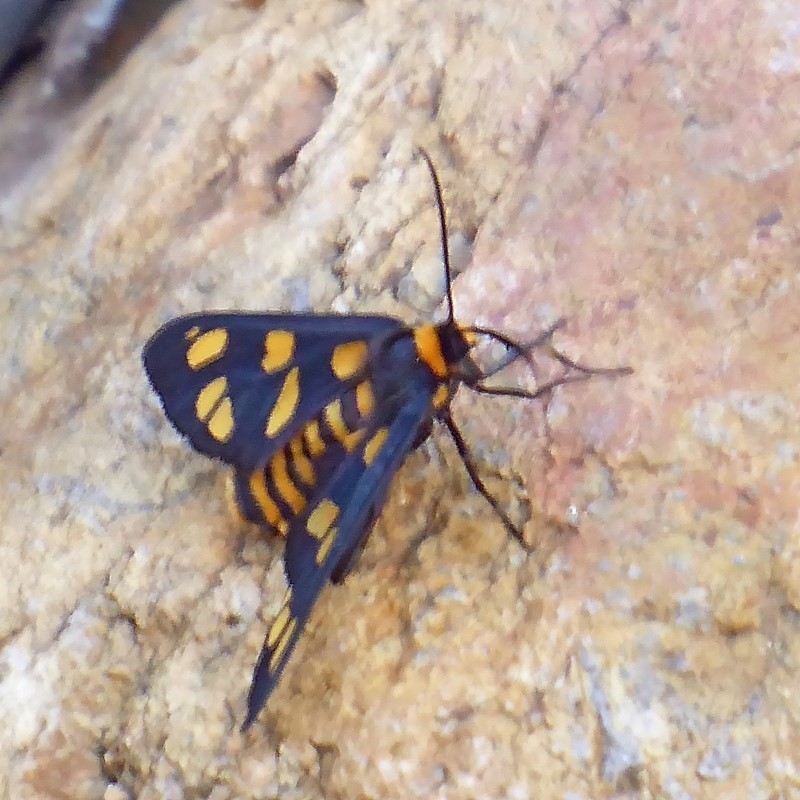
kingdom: Animalia
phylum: Arthropoda
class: Insecta
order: Lepidoptera
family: Erebidae
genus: Amata
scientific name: Amata nigriceps
